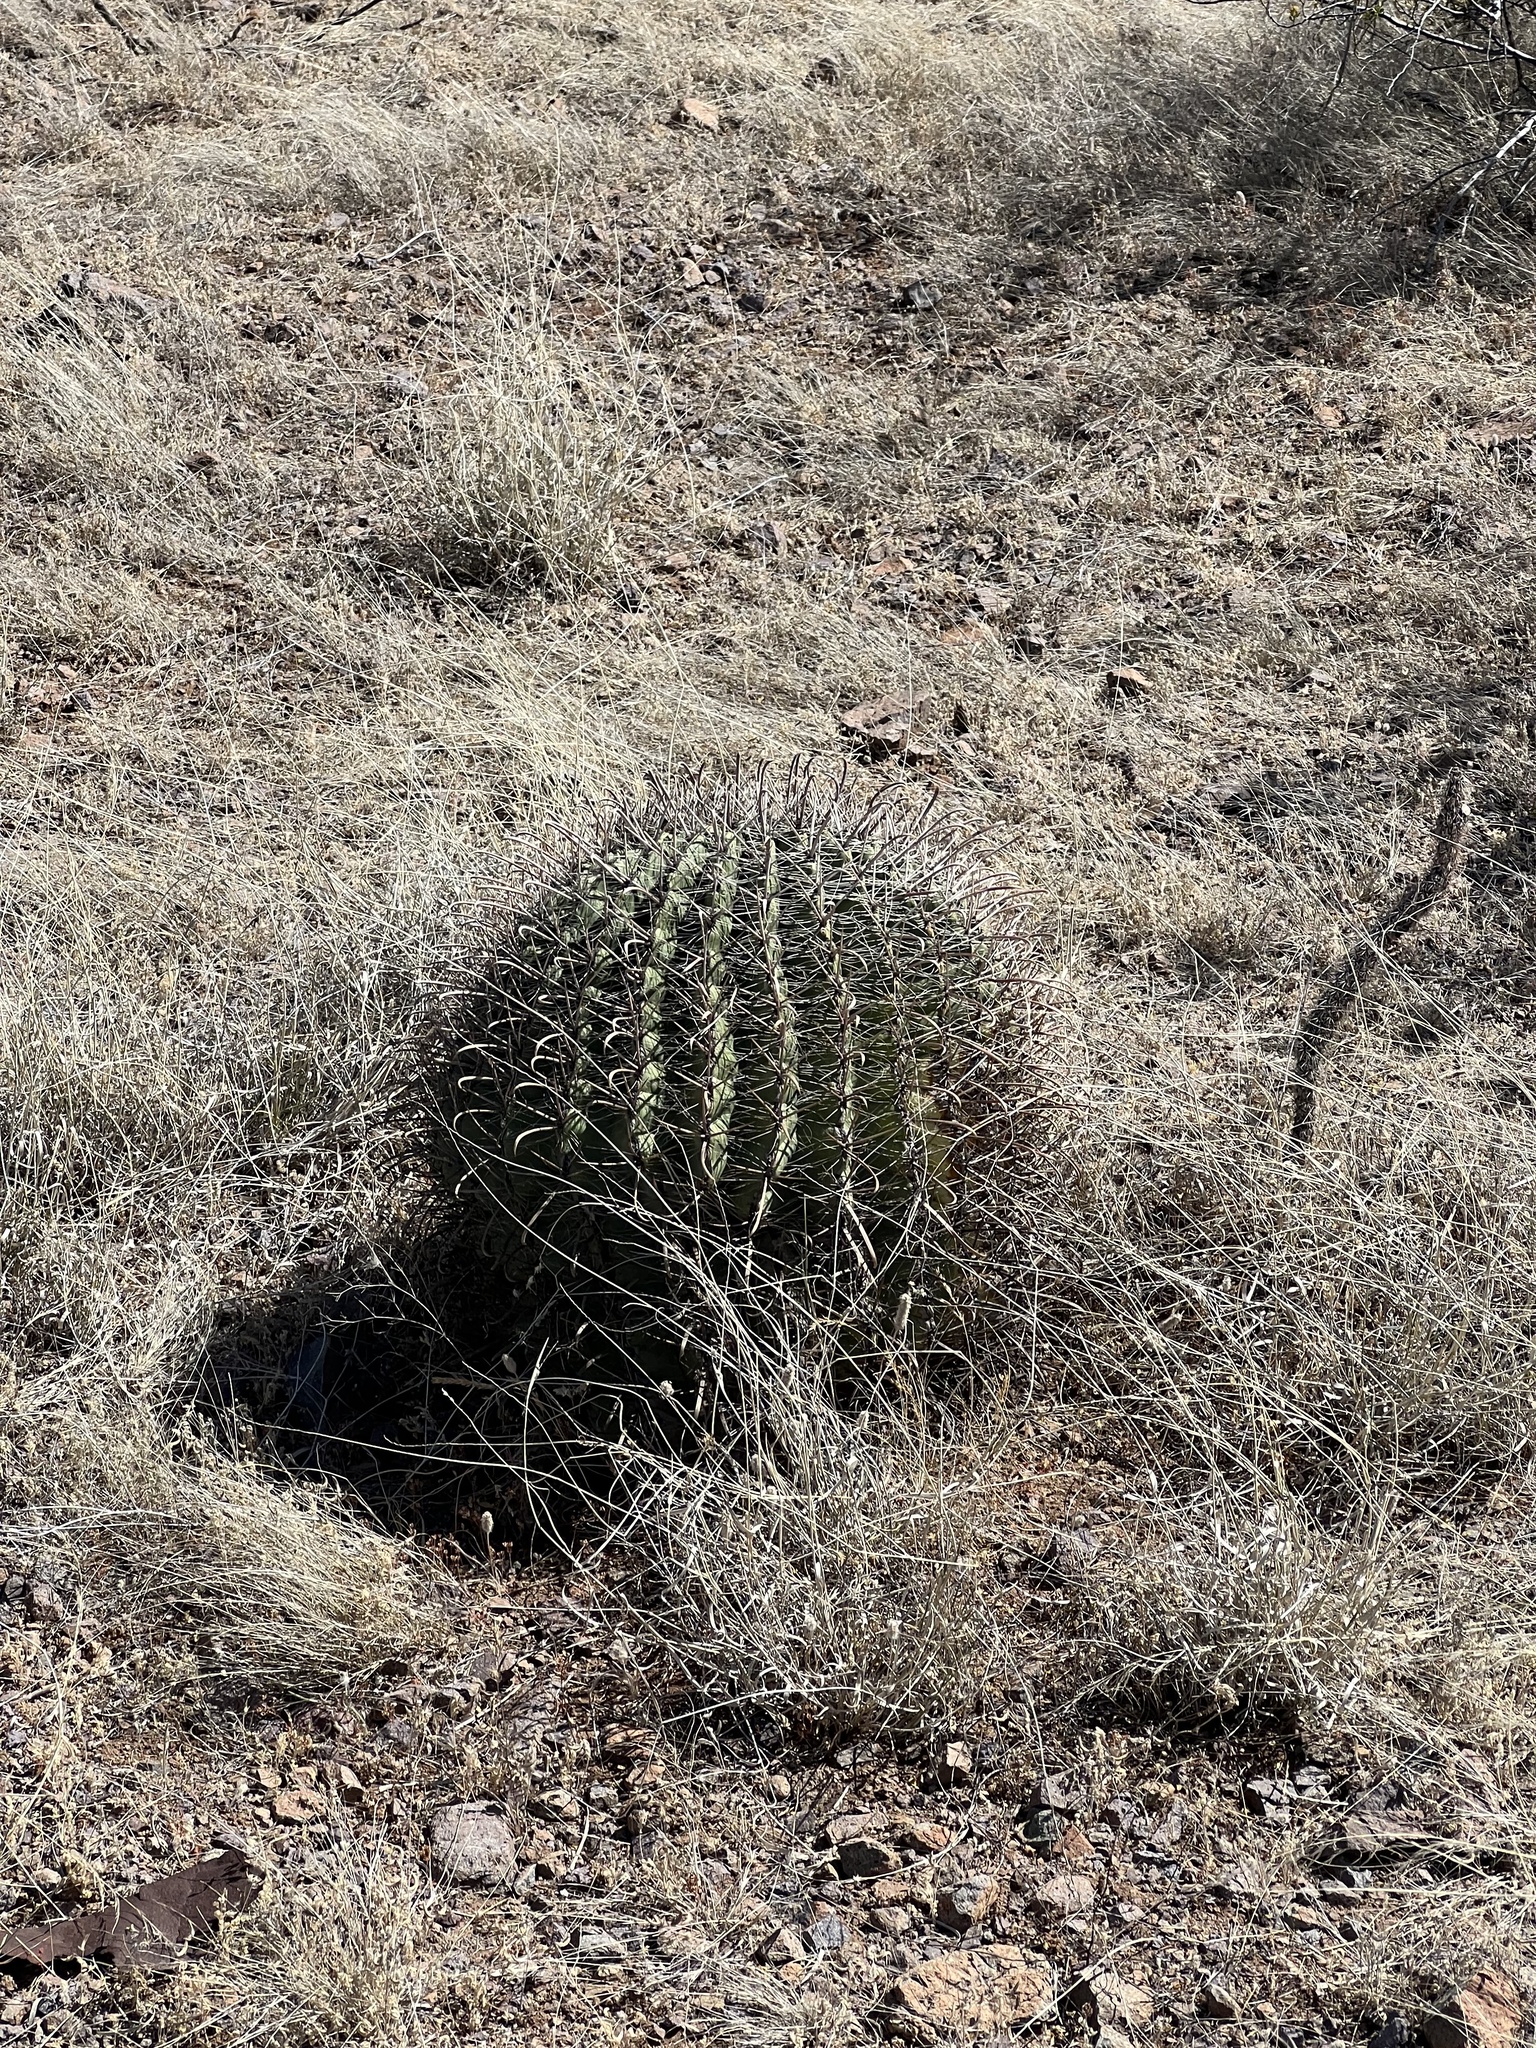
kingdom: Plantae
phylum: Tracheophyta
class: Magnoliopsida
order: Caryophyllales
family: Cactaceae
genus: Ferocactus
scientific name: Ferocactus wislizeni
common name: Candy barrel cactus
